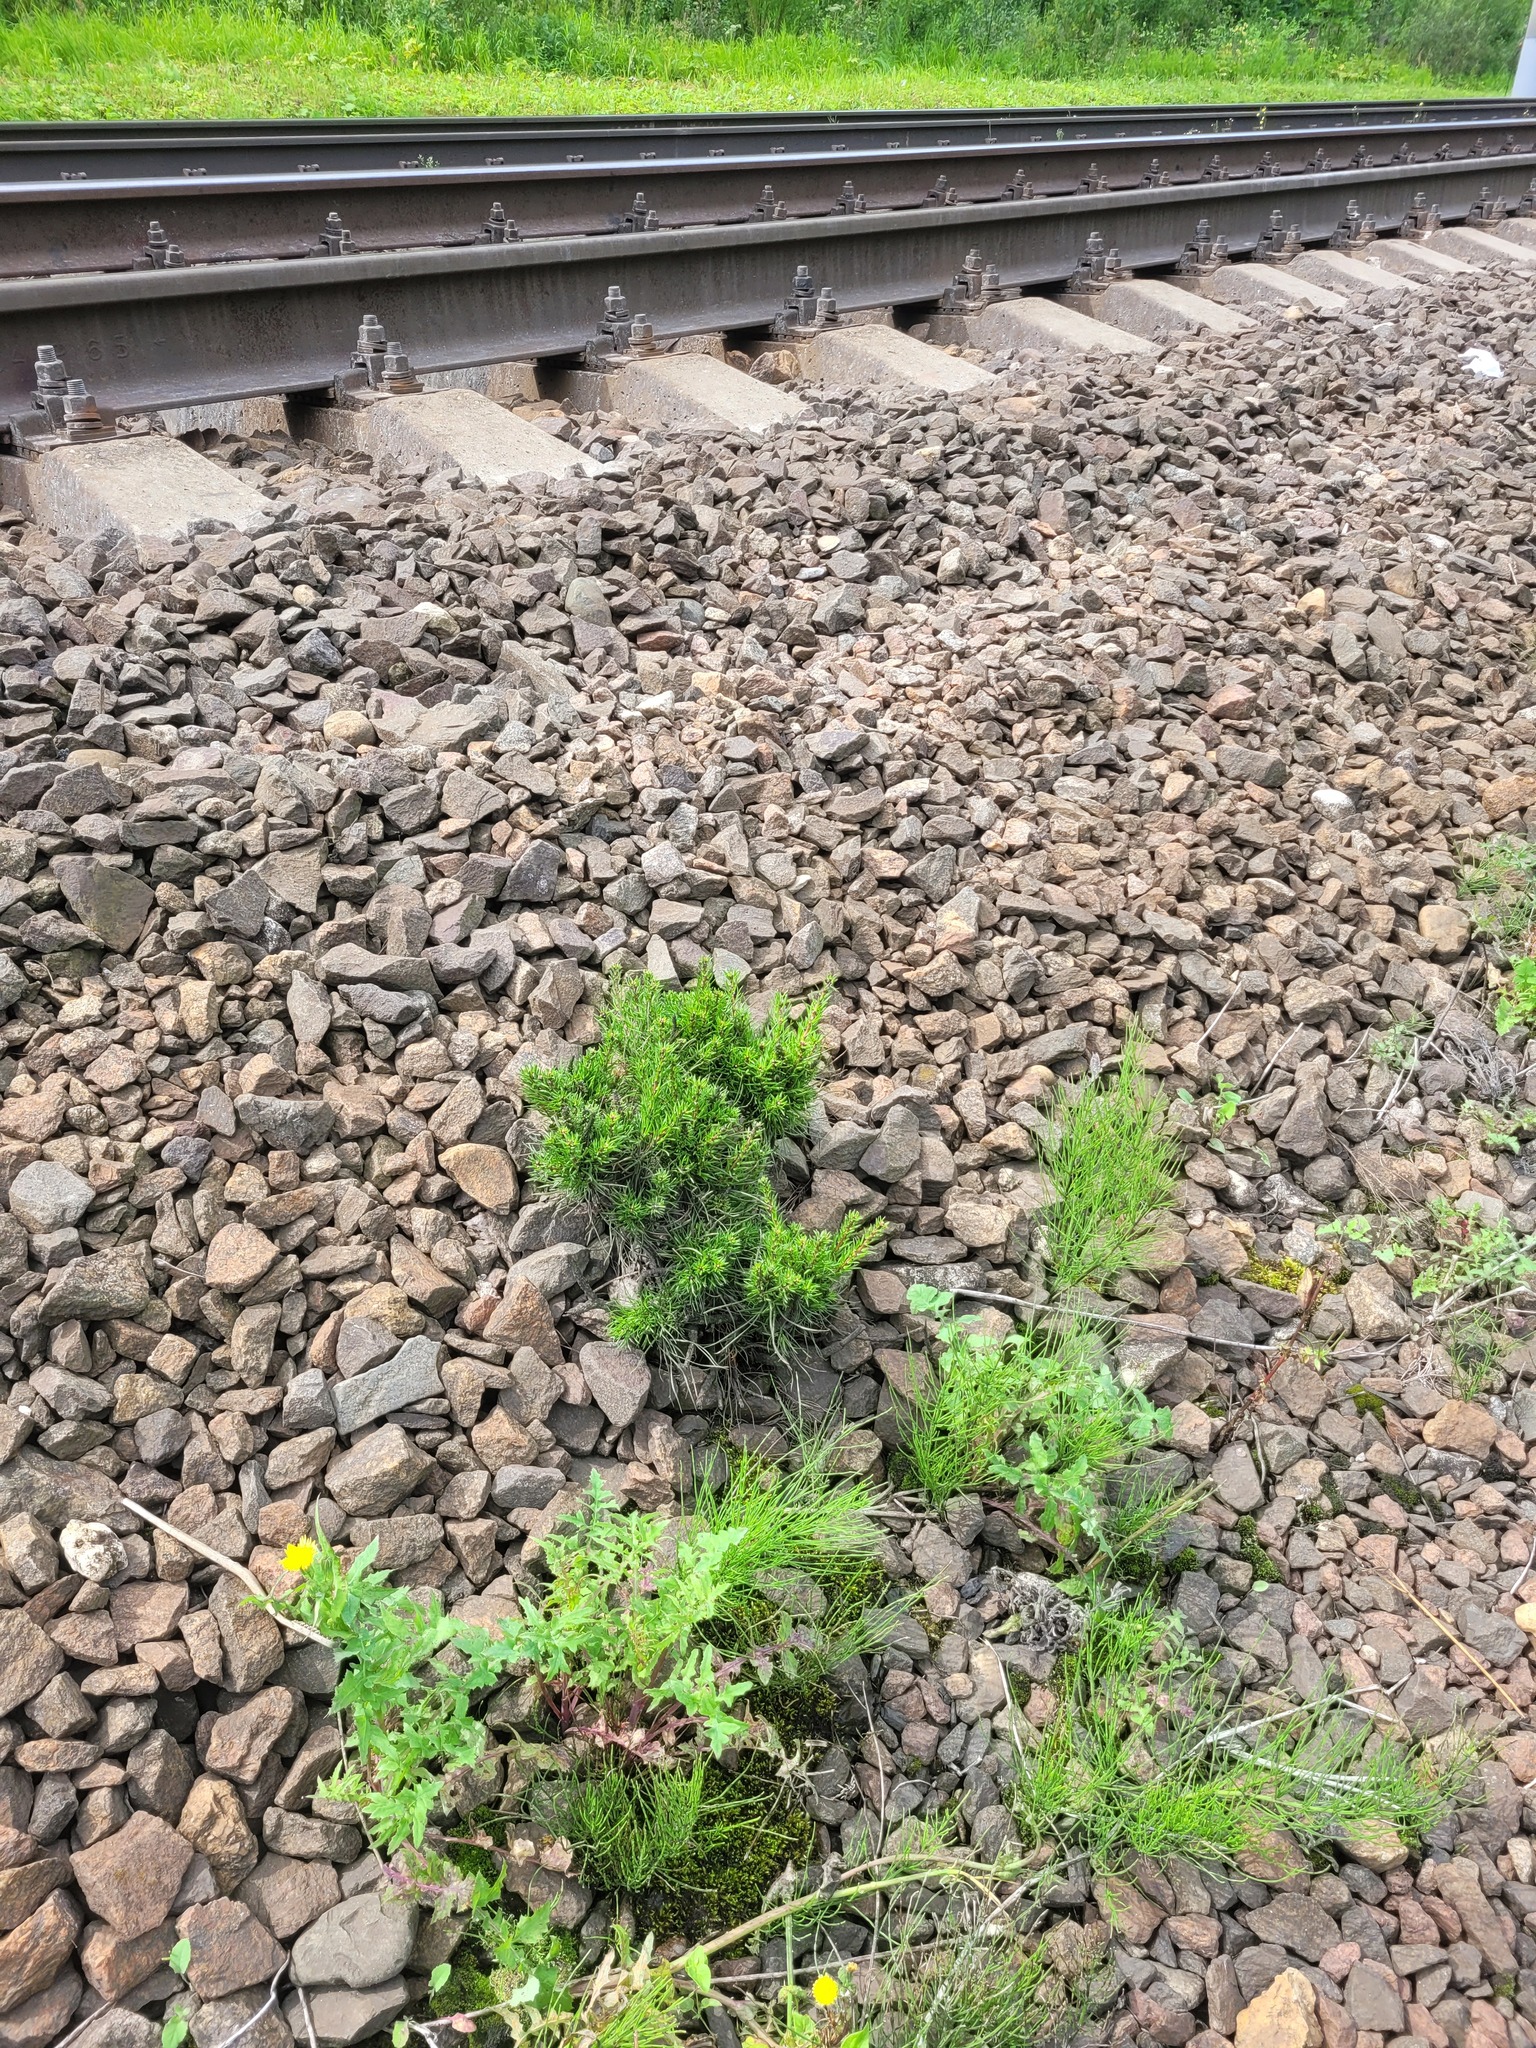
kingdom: Plantae
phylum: Tracheophyta
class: Pinopsida
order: Pinales
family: Pinaceae
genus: Pinus
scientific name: Pinus sylvestris
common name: Scots pine
